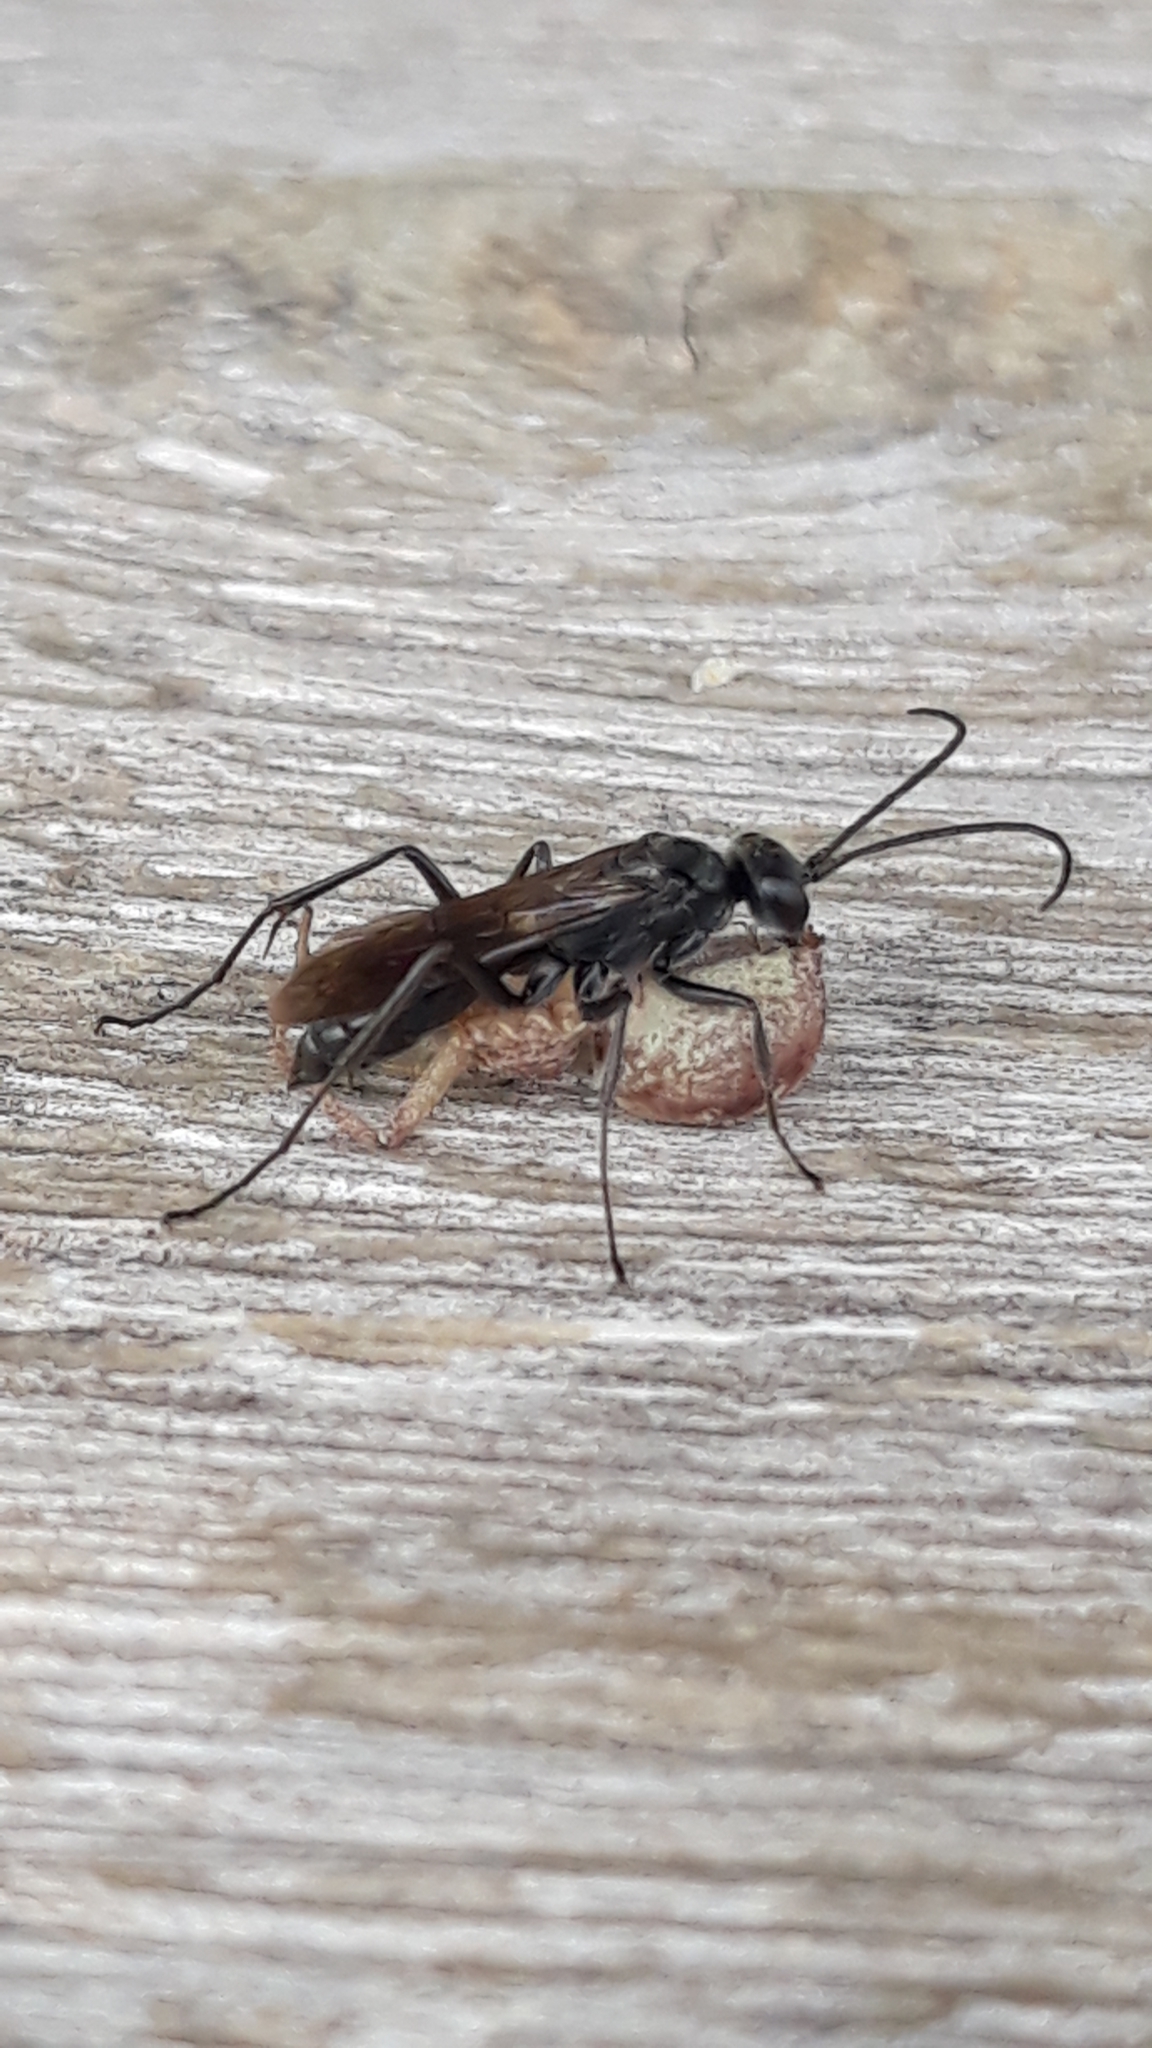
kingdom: Animalia
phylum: Arthropoda
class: Insecta
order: Hymenoptera
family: Pompilidae
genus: Auplopus
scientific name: Auplopus carbonarius
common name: Spider wasp
